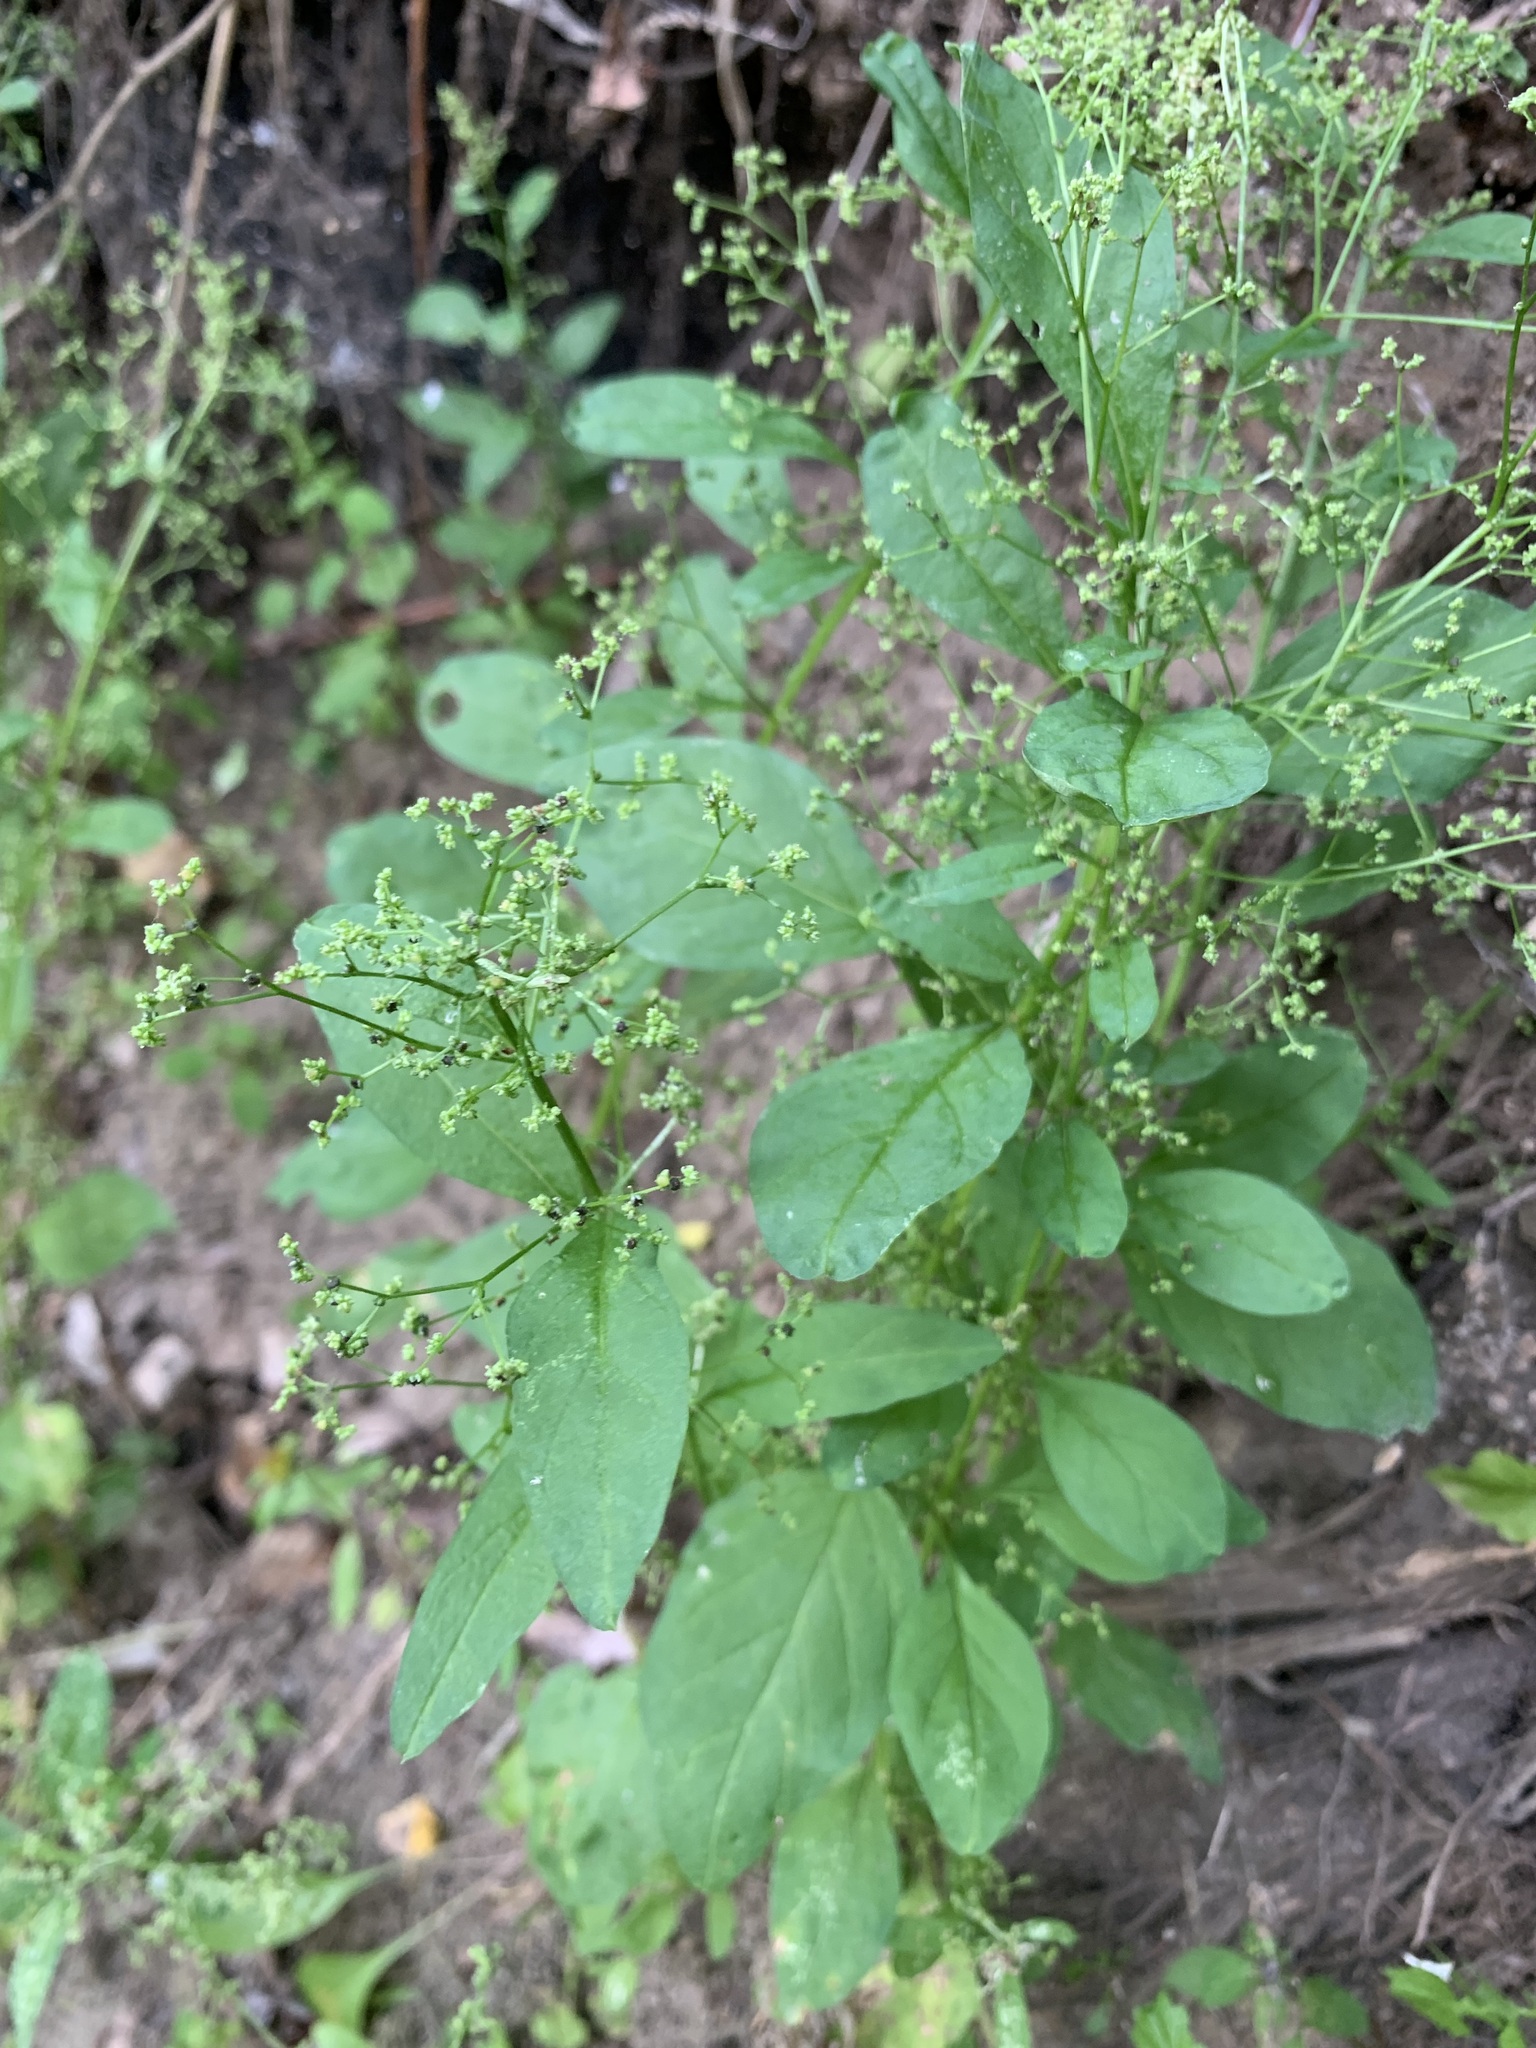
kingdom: Plantae
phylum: Tracheophyta
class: Magnoliopsida
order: Caryophyllales
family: Amaranthaceae
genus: Lipandra
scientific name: Lipandra polysperma
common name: Many-seed goosefoot
